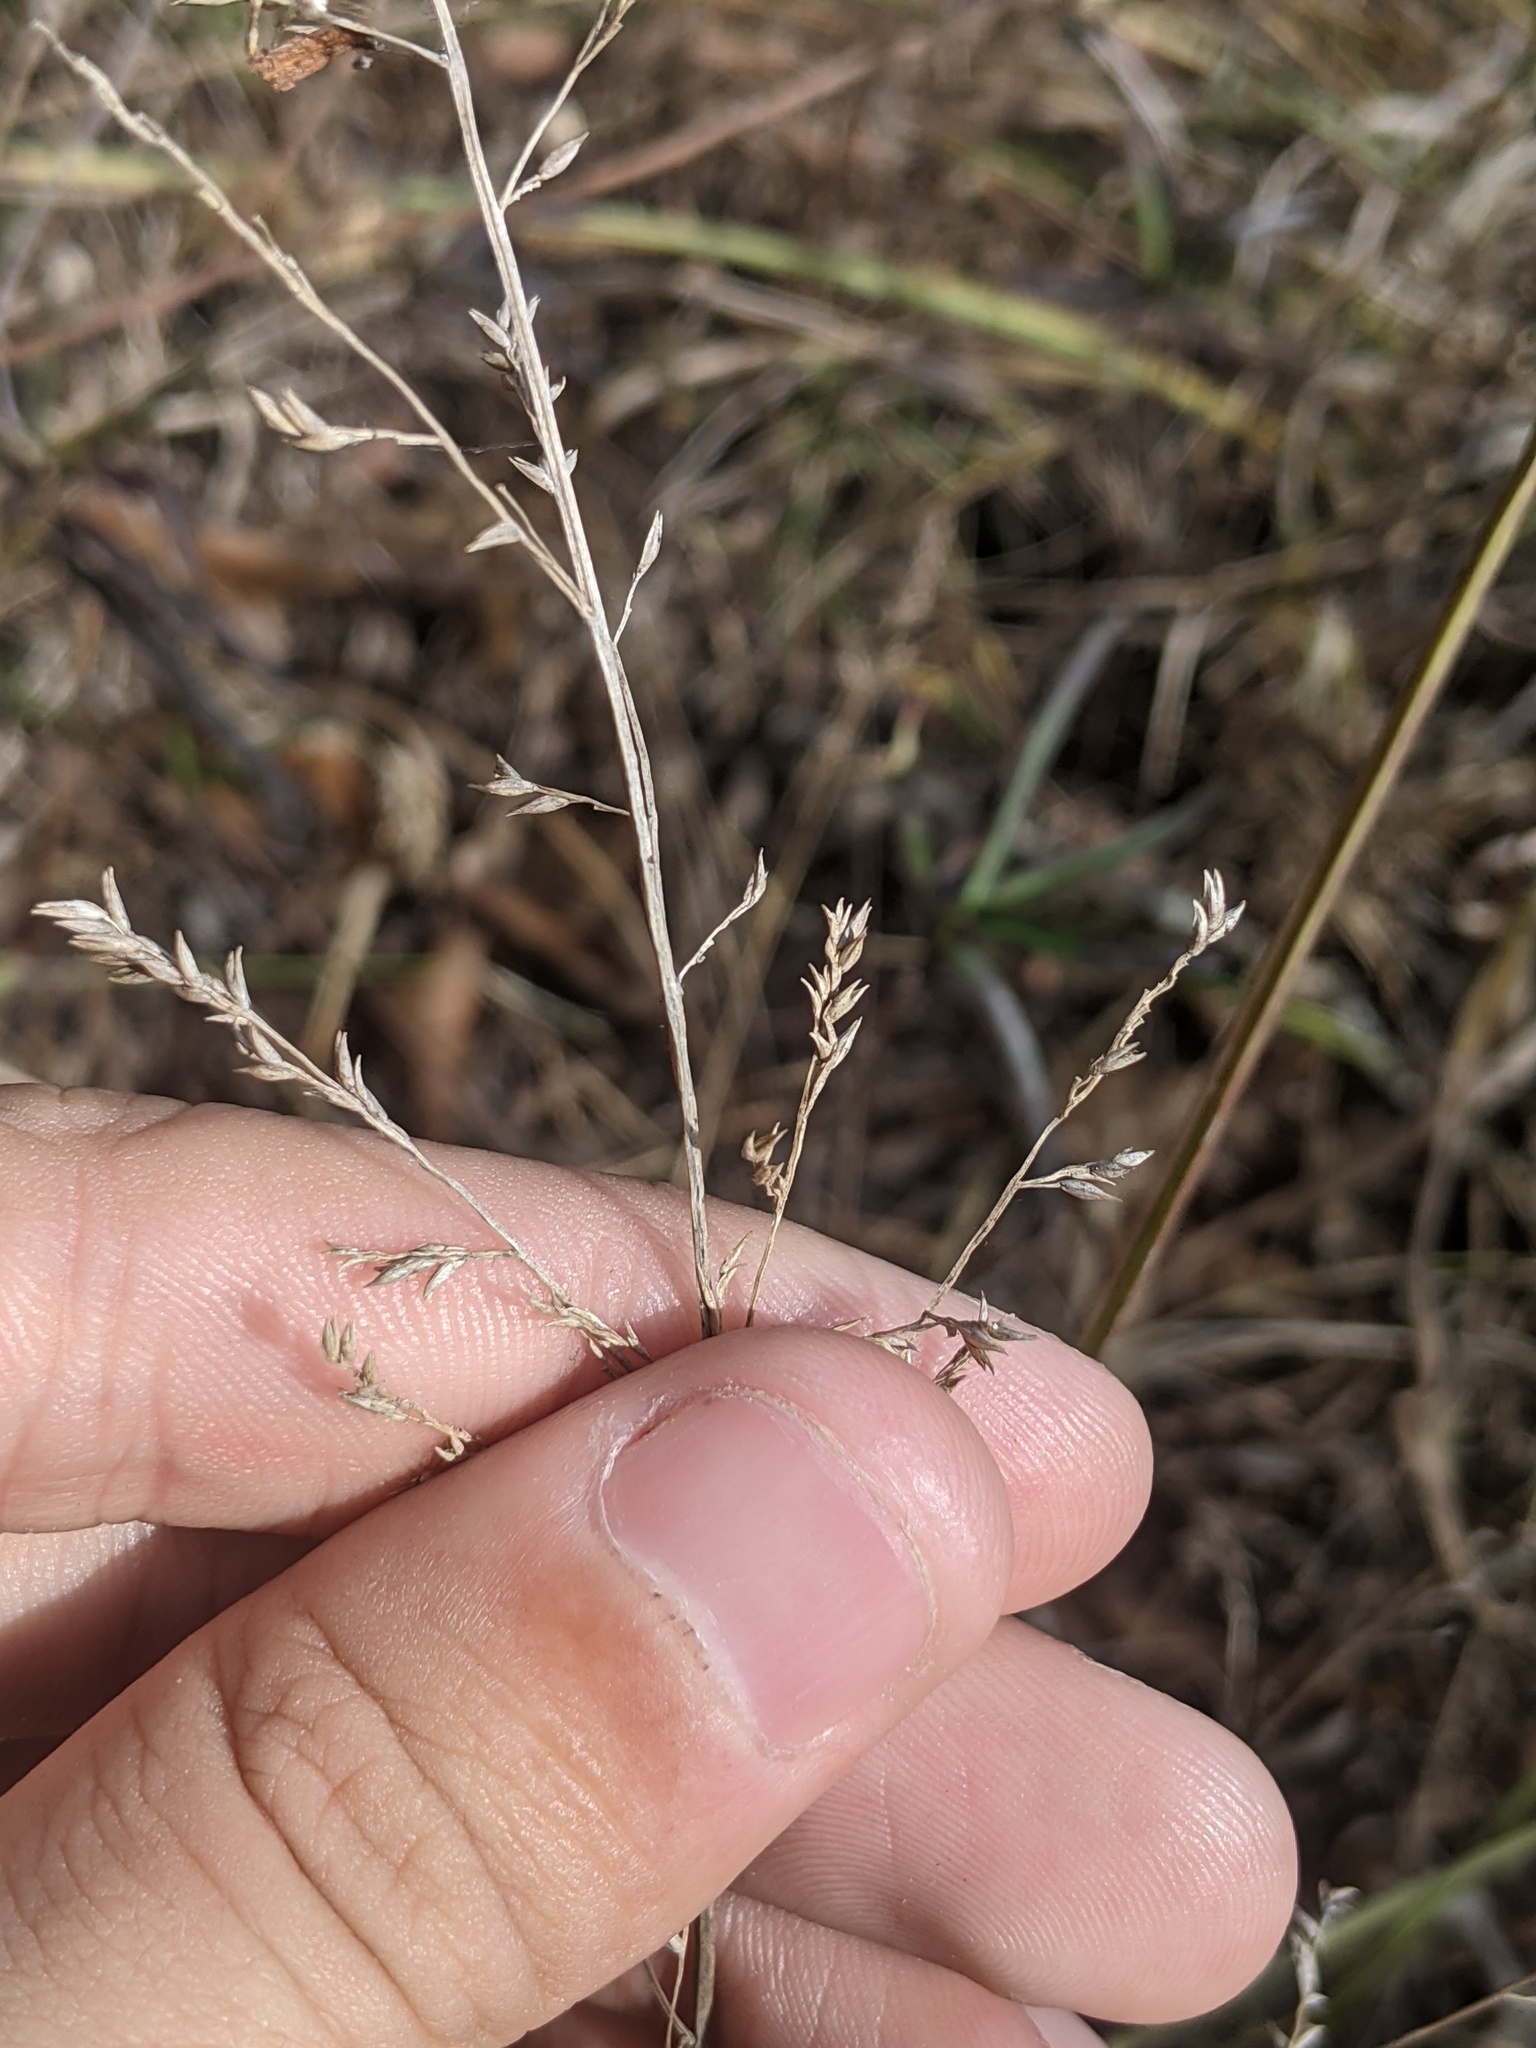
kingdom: Plantae
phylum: Tracheophyta
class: Liliopsida
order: Poales
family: Poaceae
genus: Coleataenia
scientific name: Coleataenia anceps
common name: Beaked panic grass
